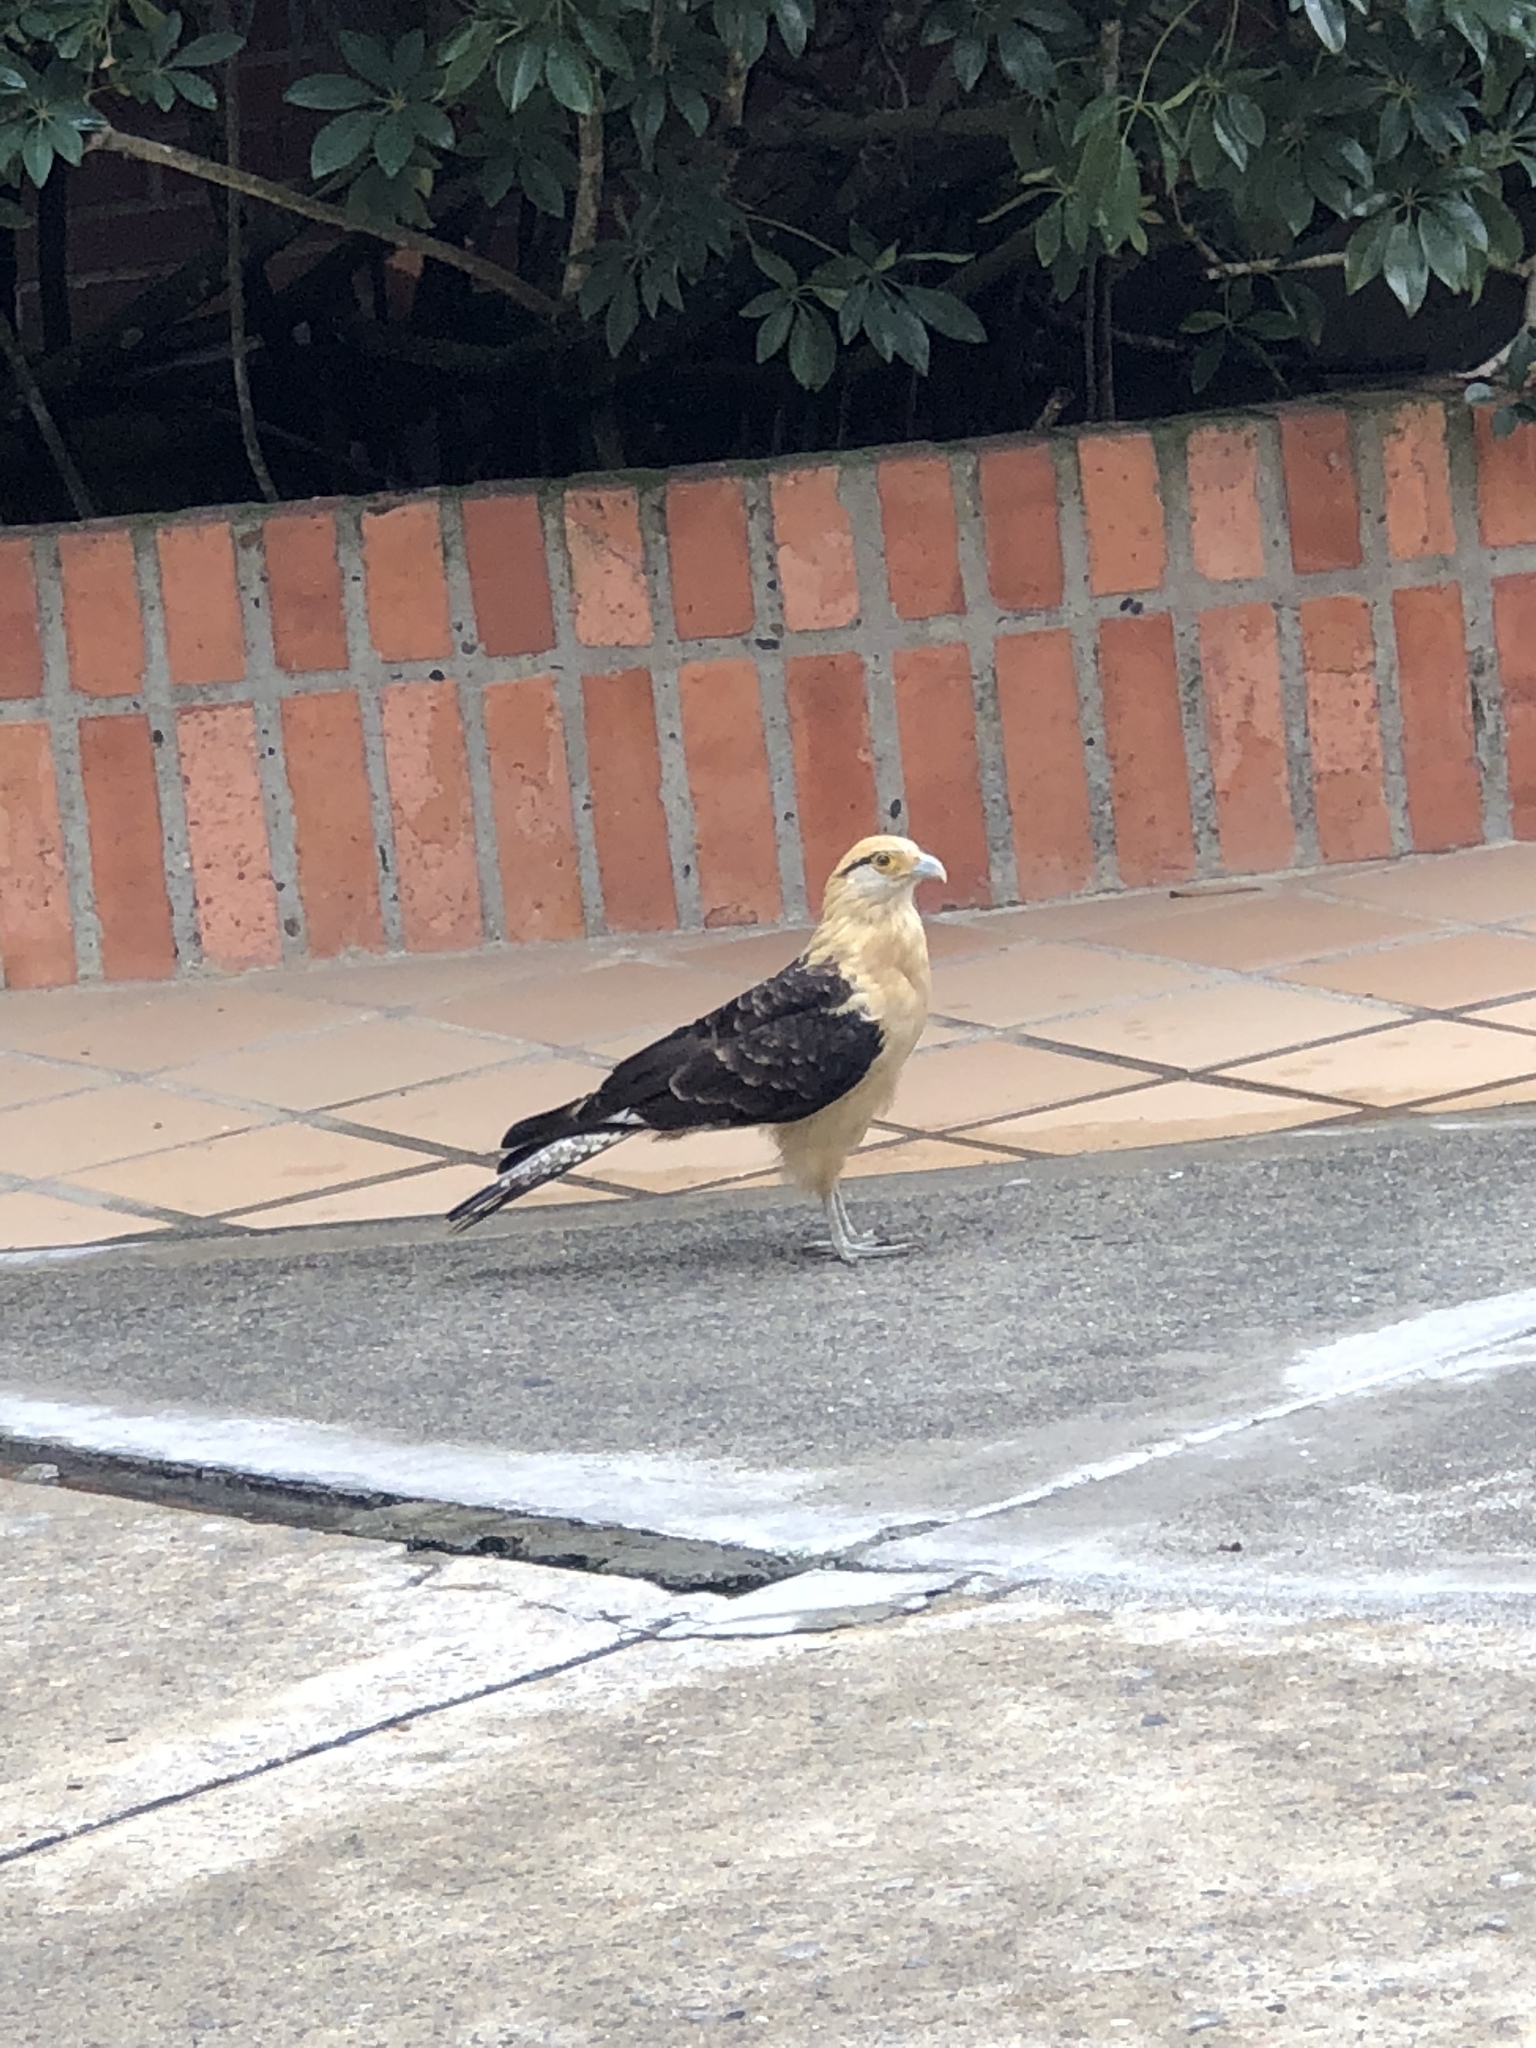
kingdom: Animalia
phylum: Chordata
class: Aves
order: Falconiformes
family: Falconidae
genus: Daptrius
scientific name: Daptrius
